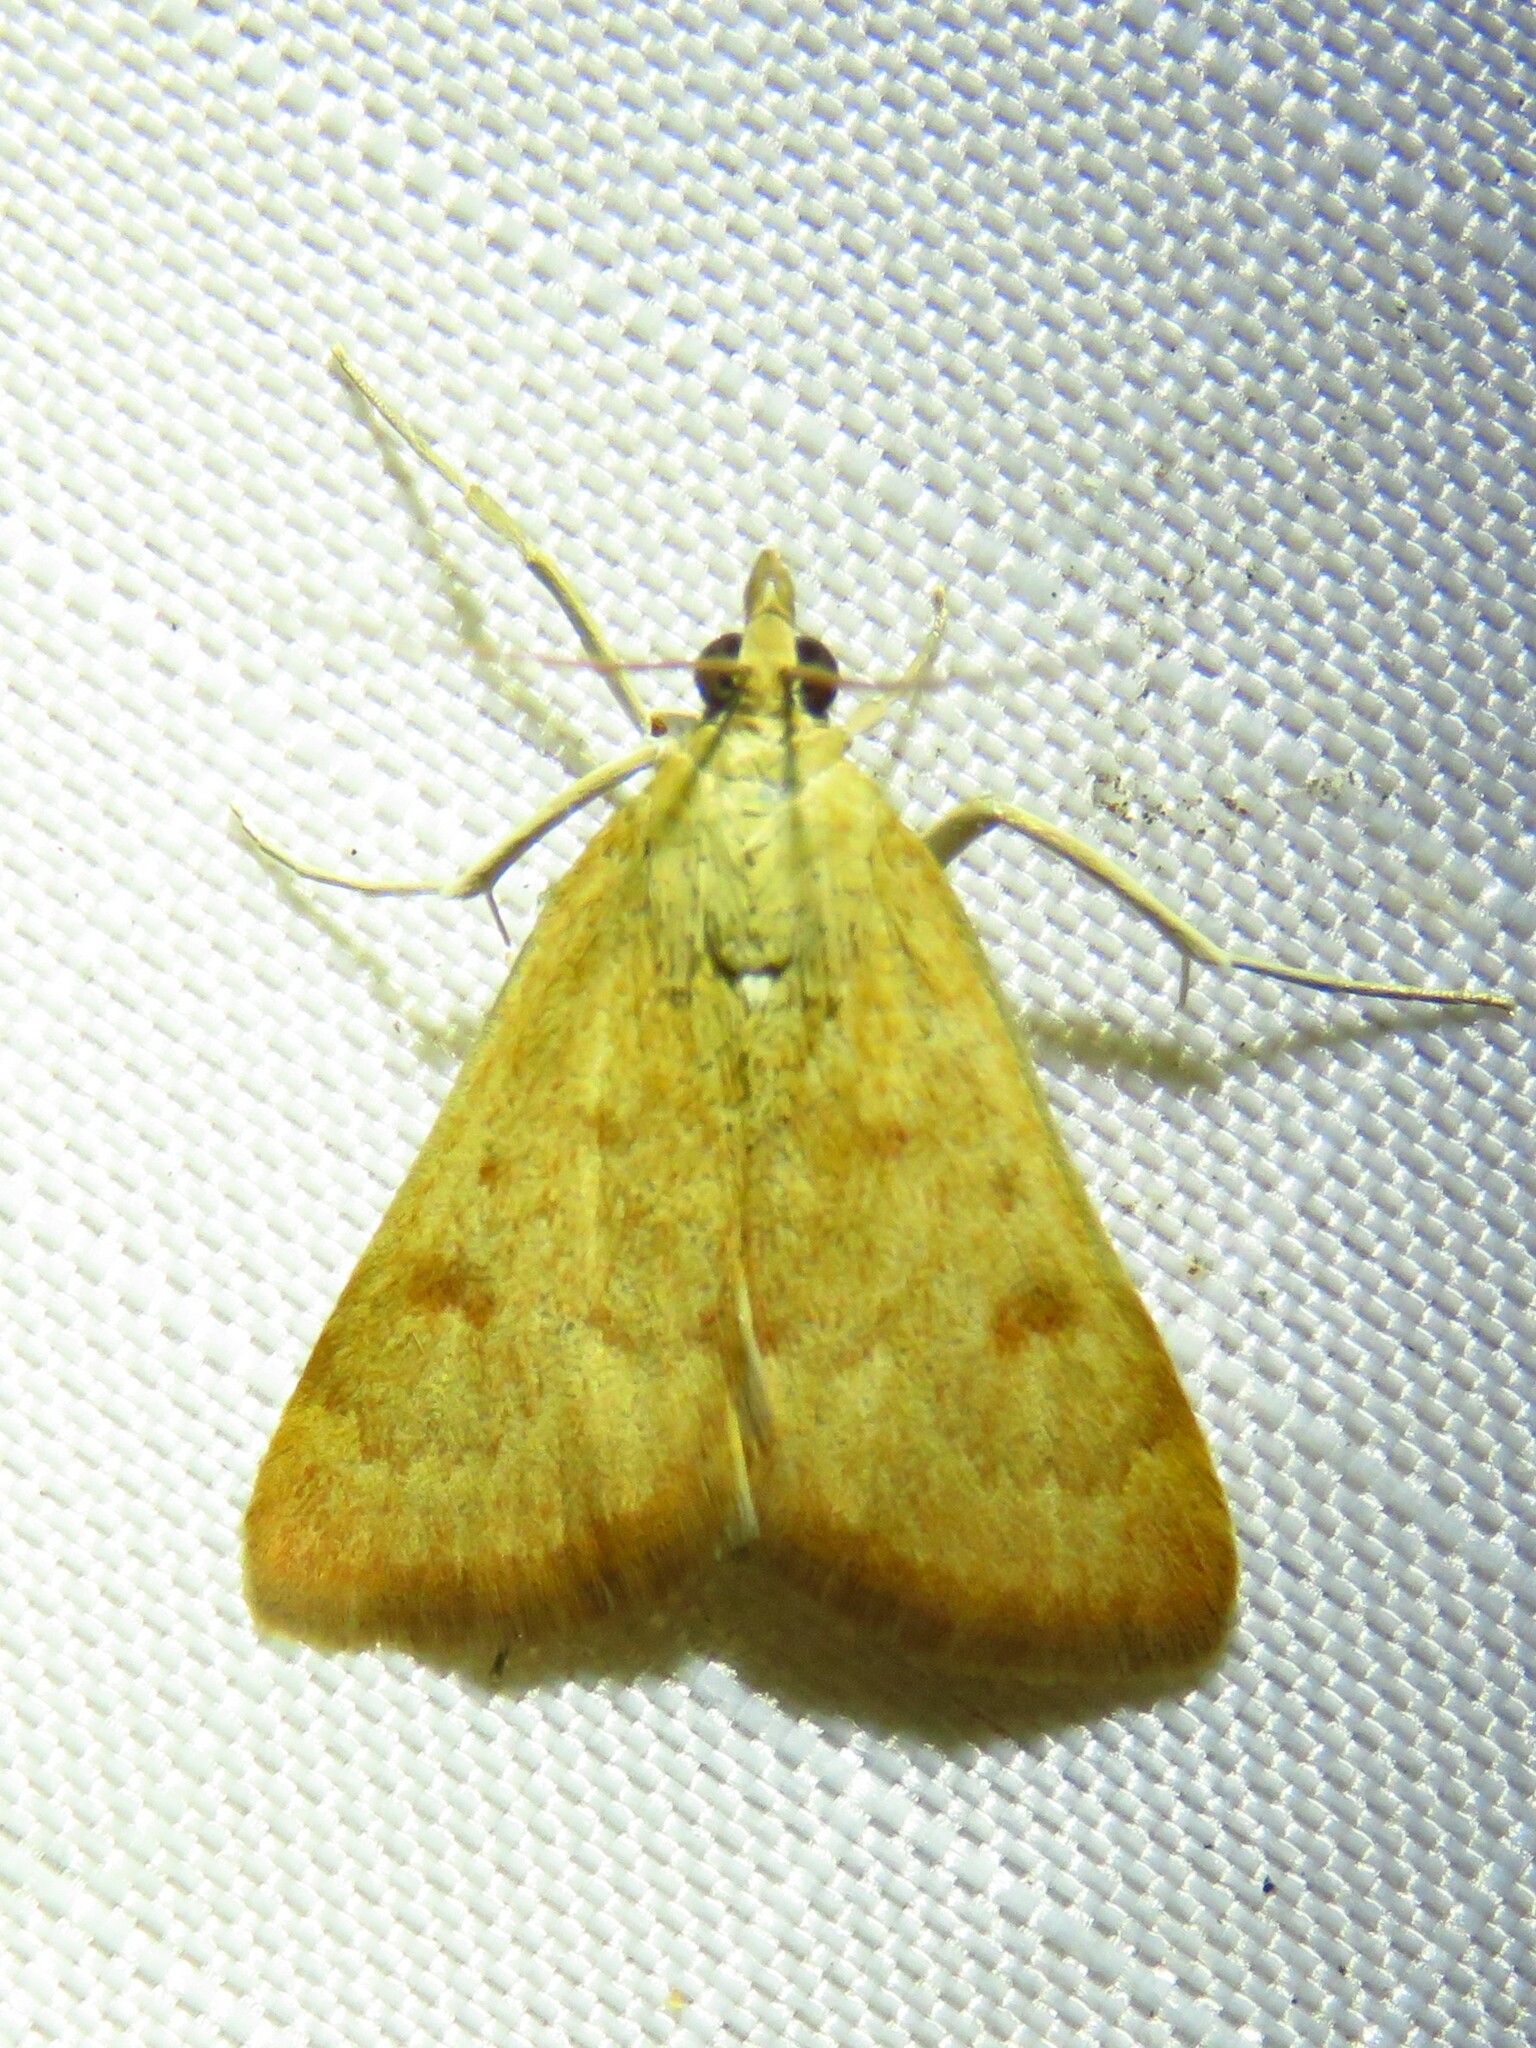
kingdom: Animalia
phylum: Arthropoda
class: Insecta
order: Lepidoptera
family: Crambidae
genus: Achyra
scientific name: Achyra rantalis
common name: Garden webworm
